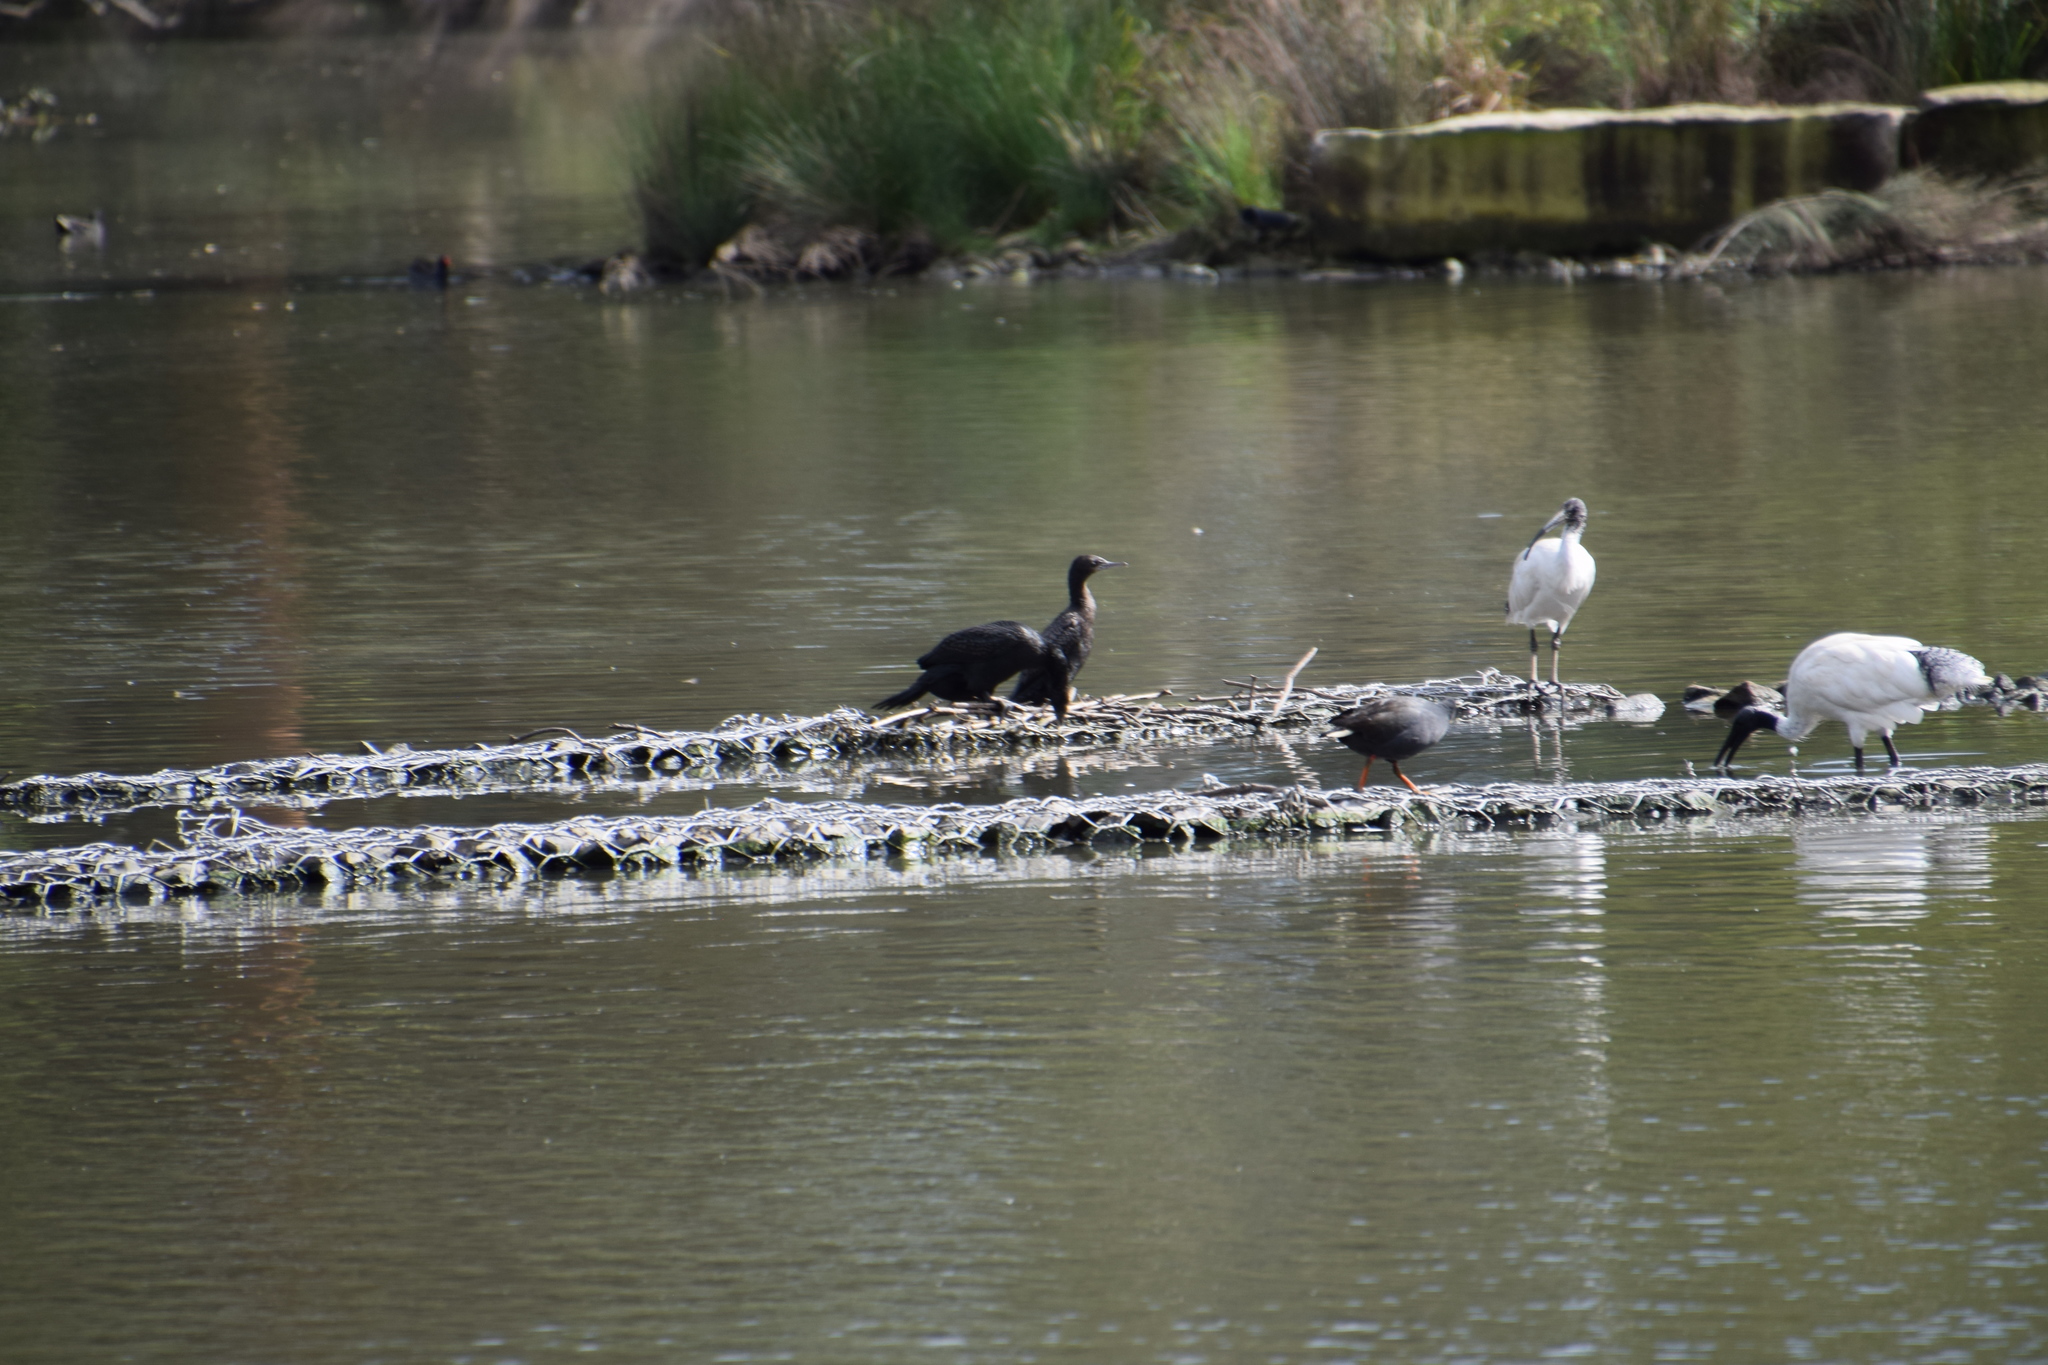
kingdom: Animalia
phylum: Chordata
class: Aves
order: Suliformes
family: Phalacrocoracidae
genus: Phalacrocorax
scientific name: Phalacrocorax sulcirostris
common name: Little black cormorant
